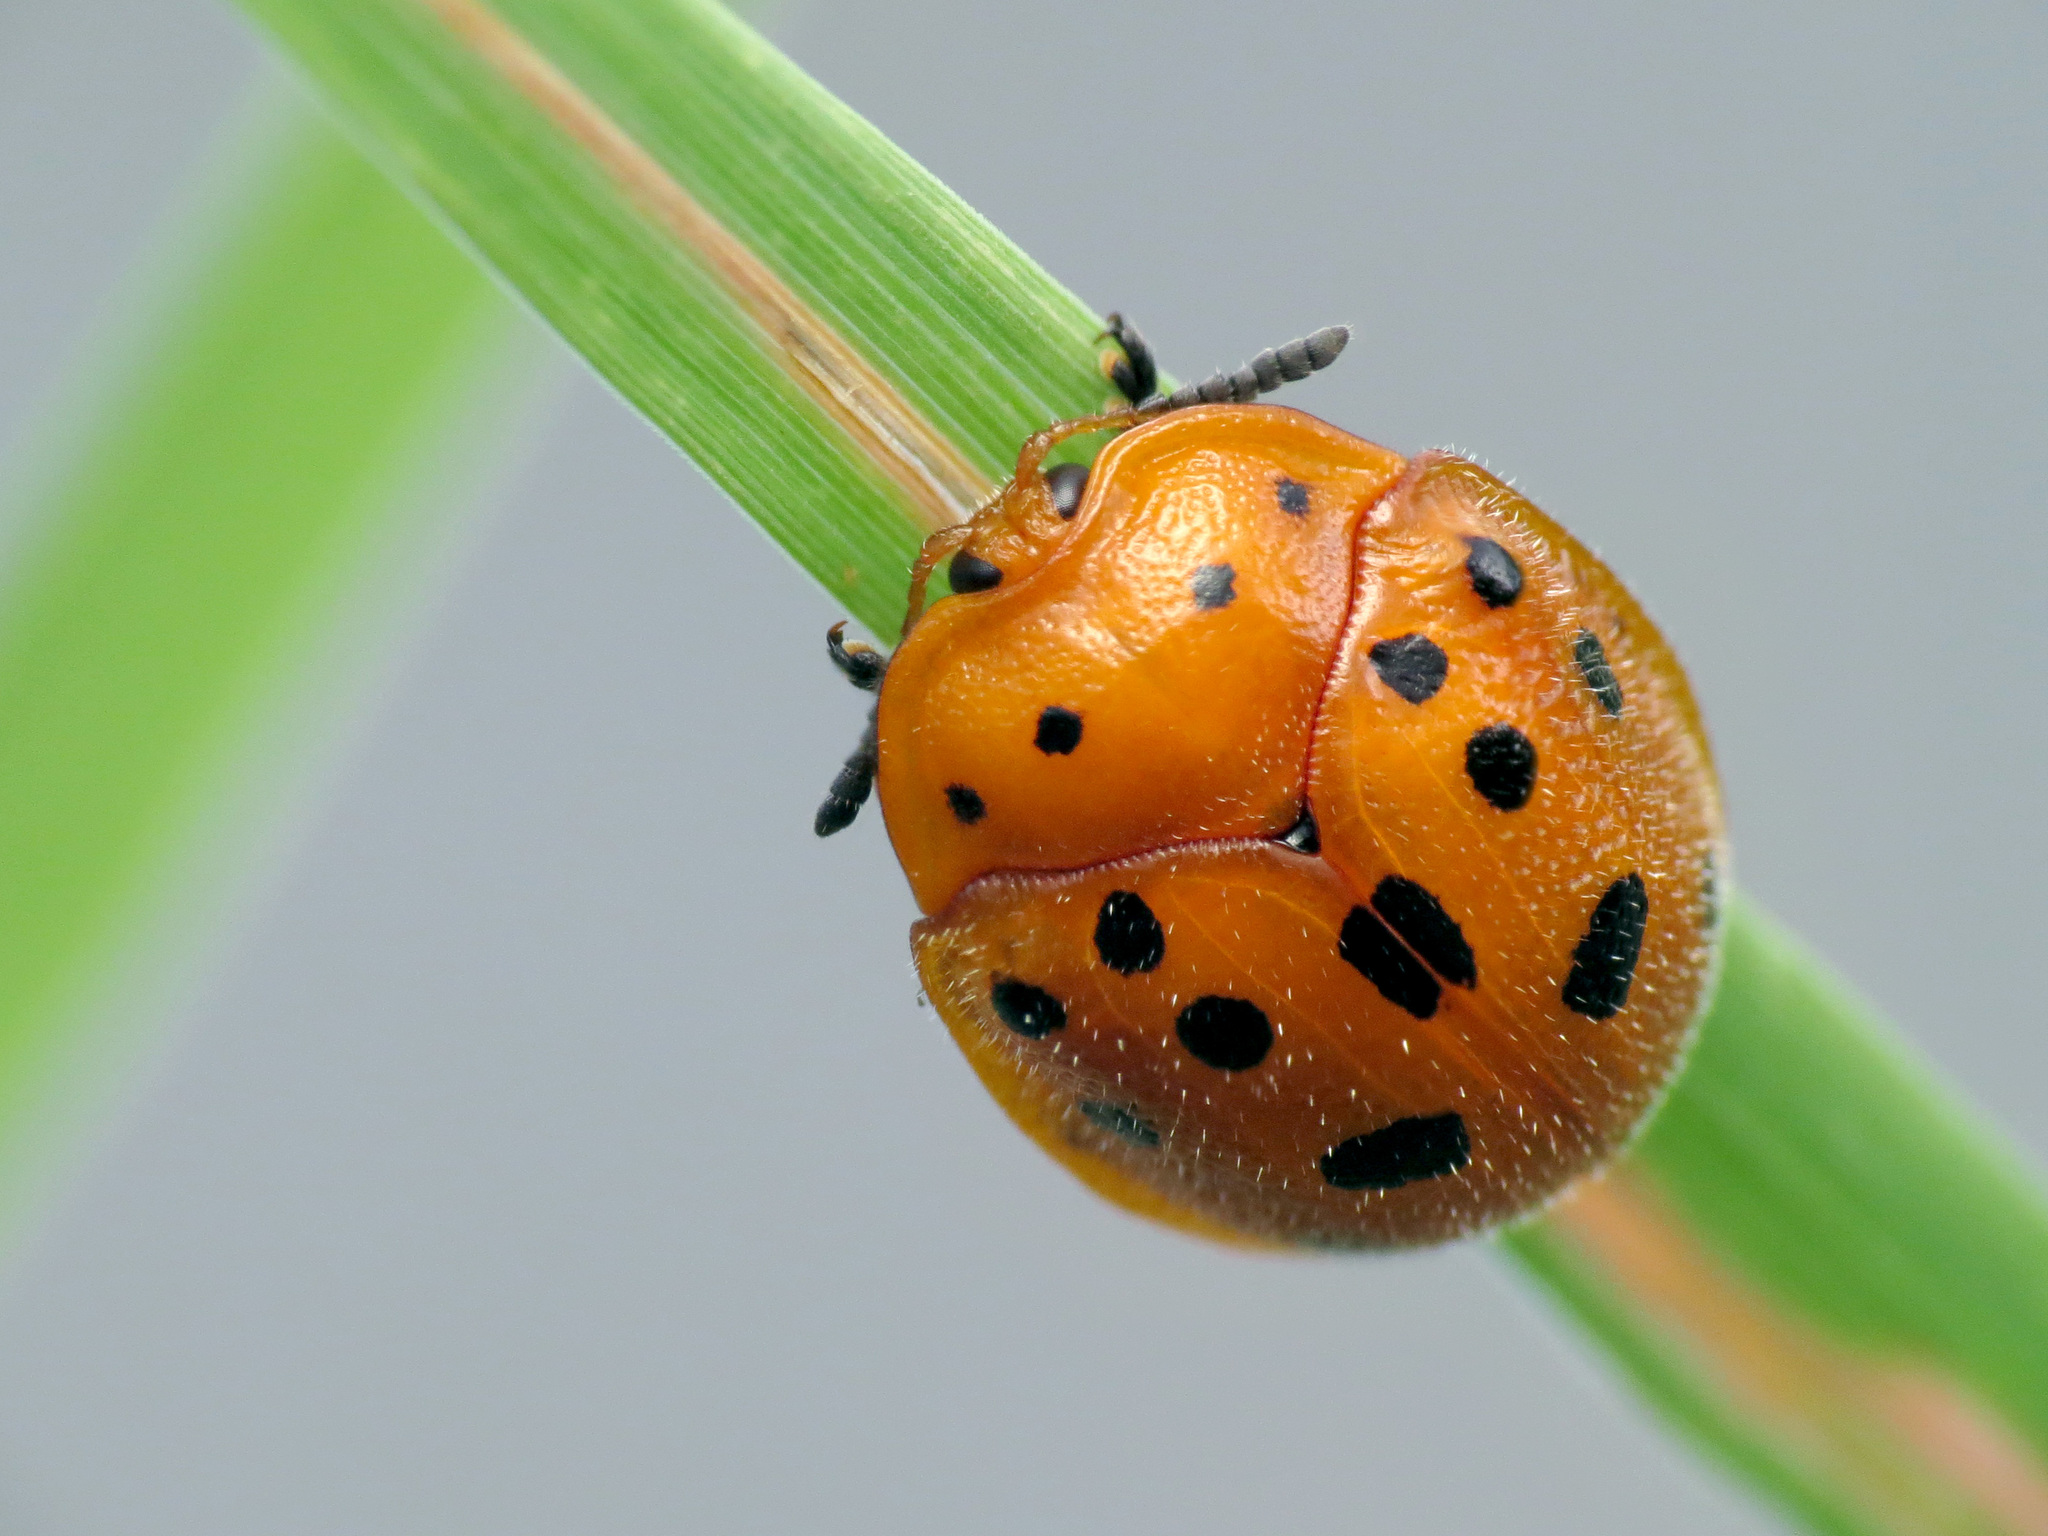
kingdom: Animalia
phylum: Arthropoda
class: Insecta
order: Coleoptera
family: Chrysomelidae
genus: Chelymorpha
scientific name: Chelymorpha phytophagica
